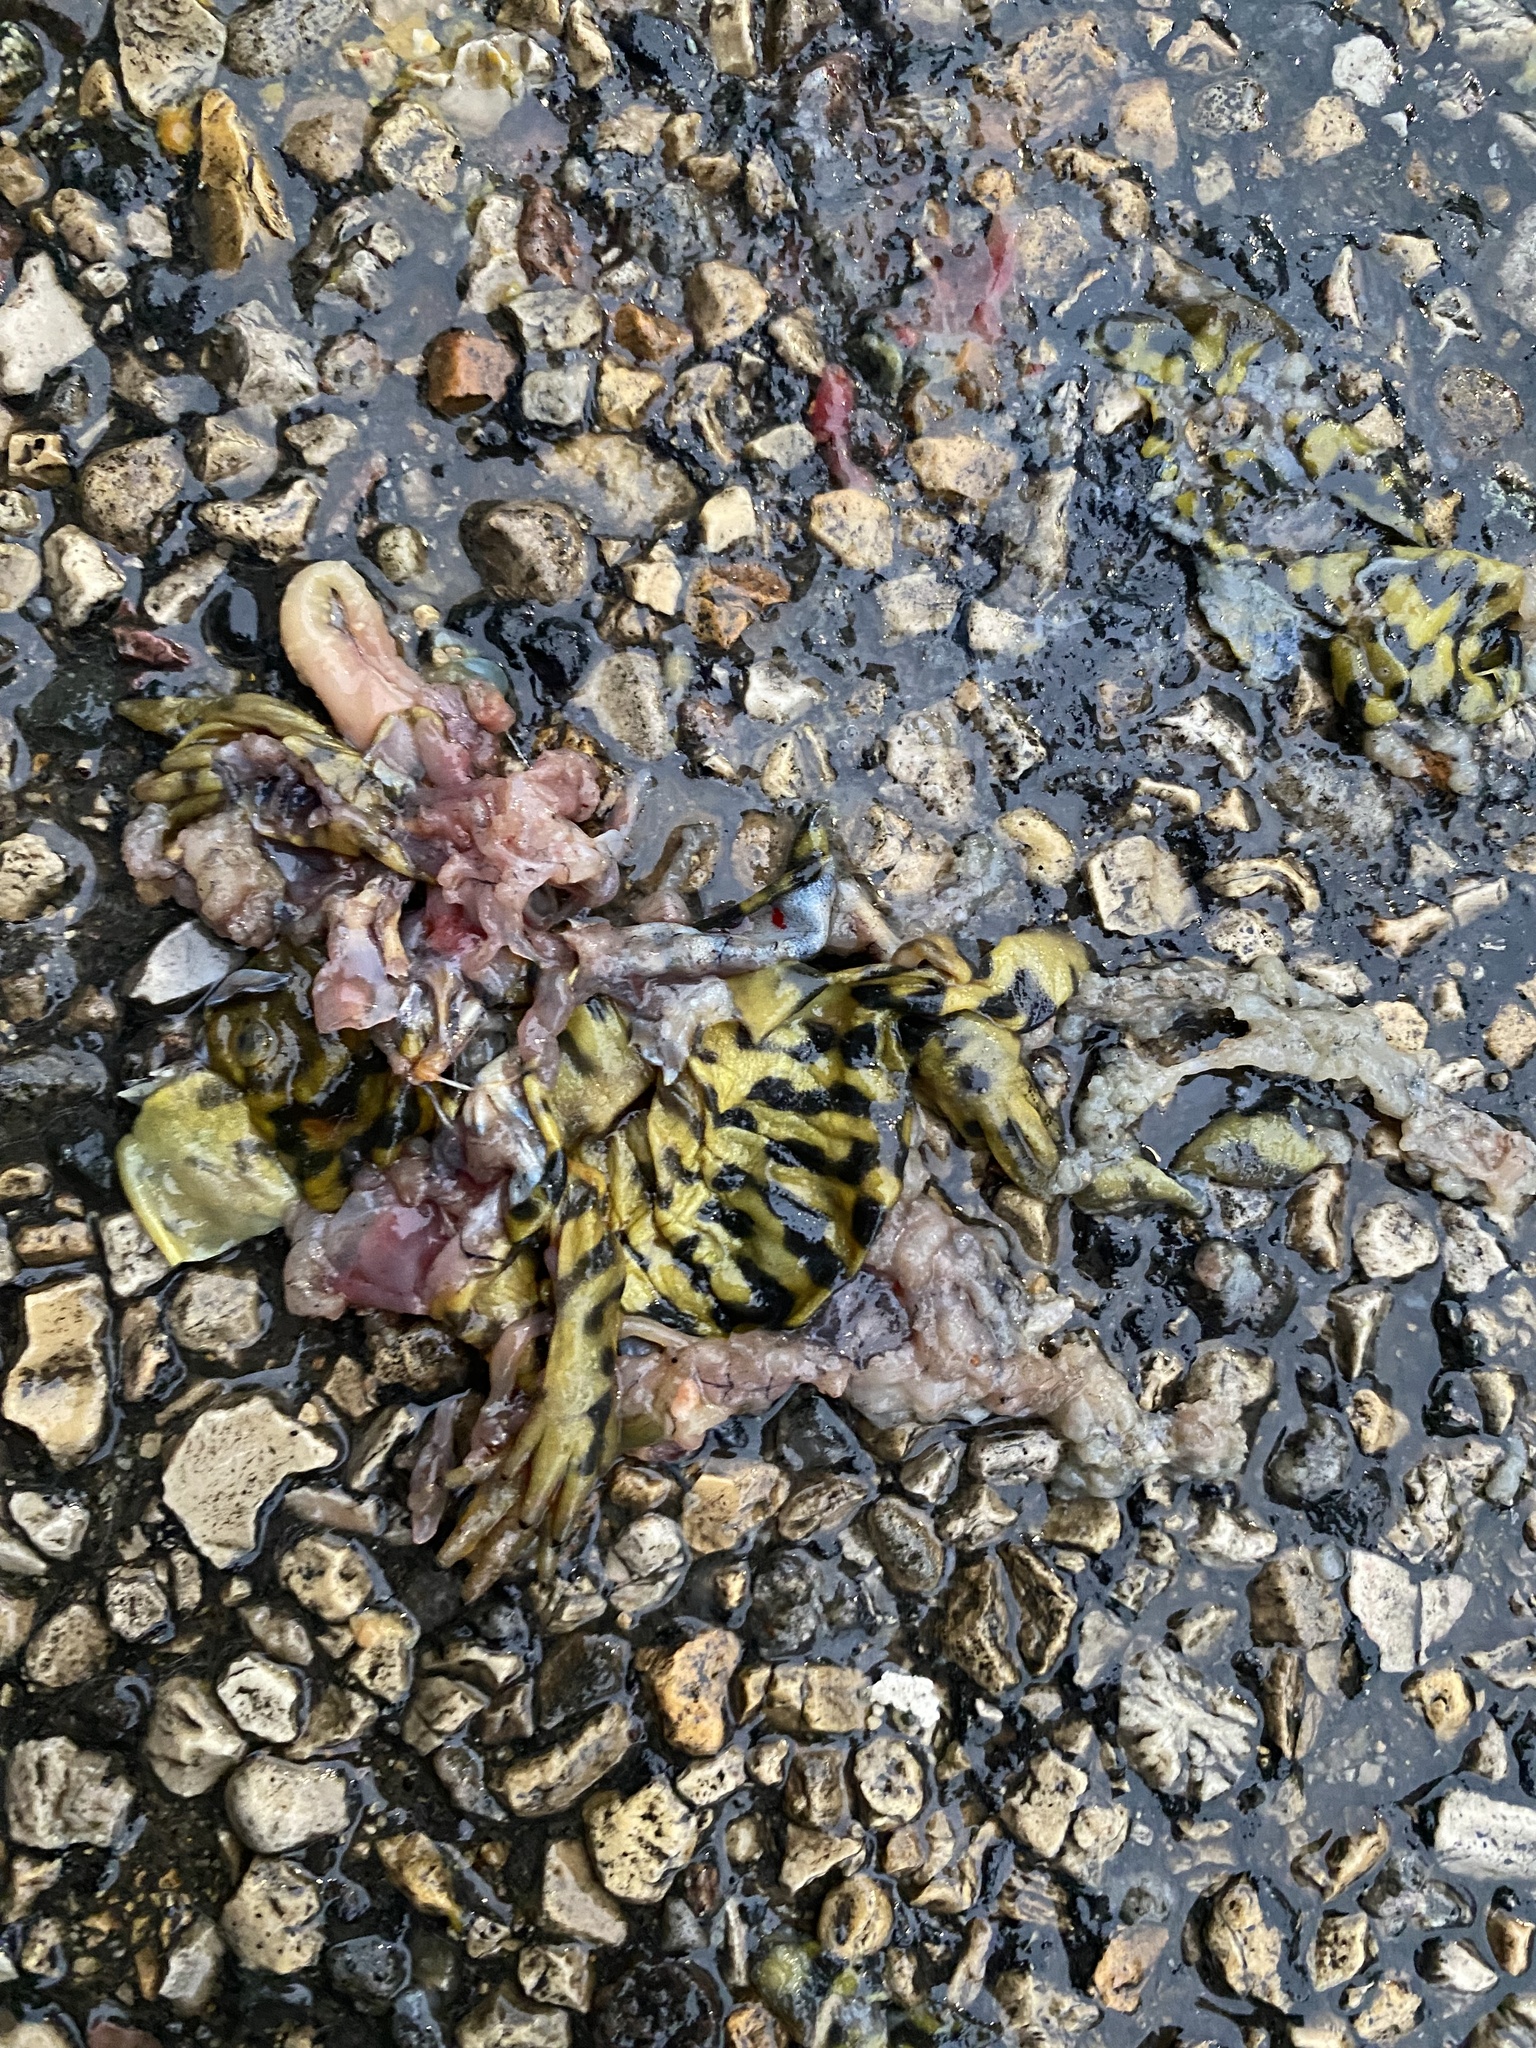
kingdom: Animalia
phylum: Chordata
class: Amphibia
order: Caudata
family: Ambystomatidae
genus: Ambystoma
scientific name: Ambystoma mavortium
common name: Western tiger salamander
